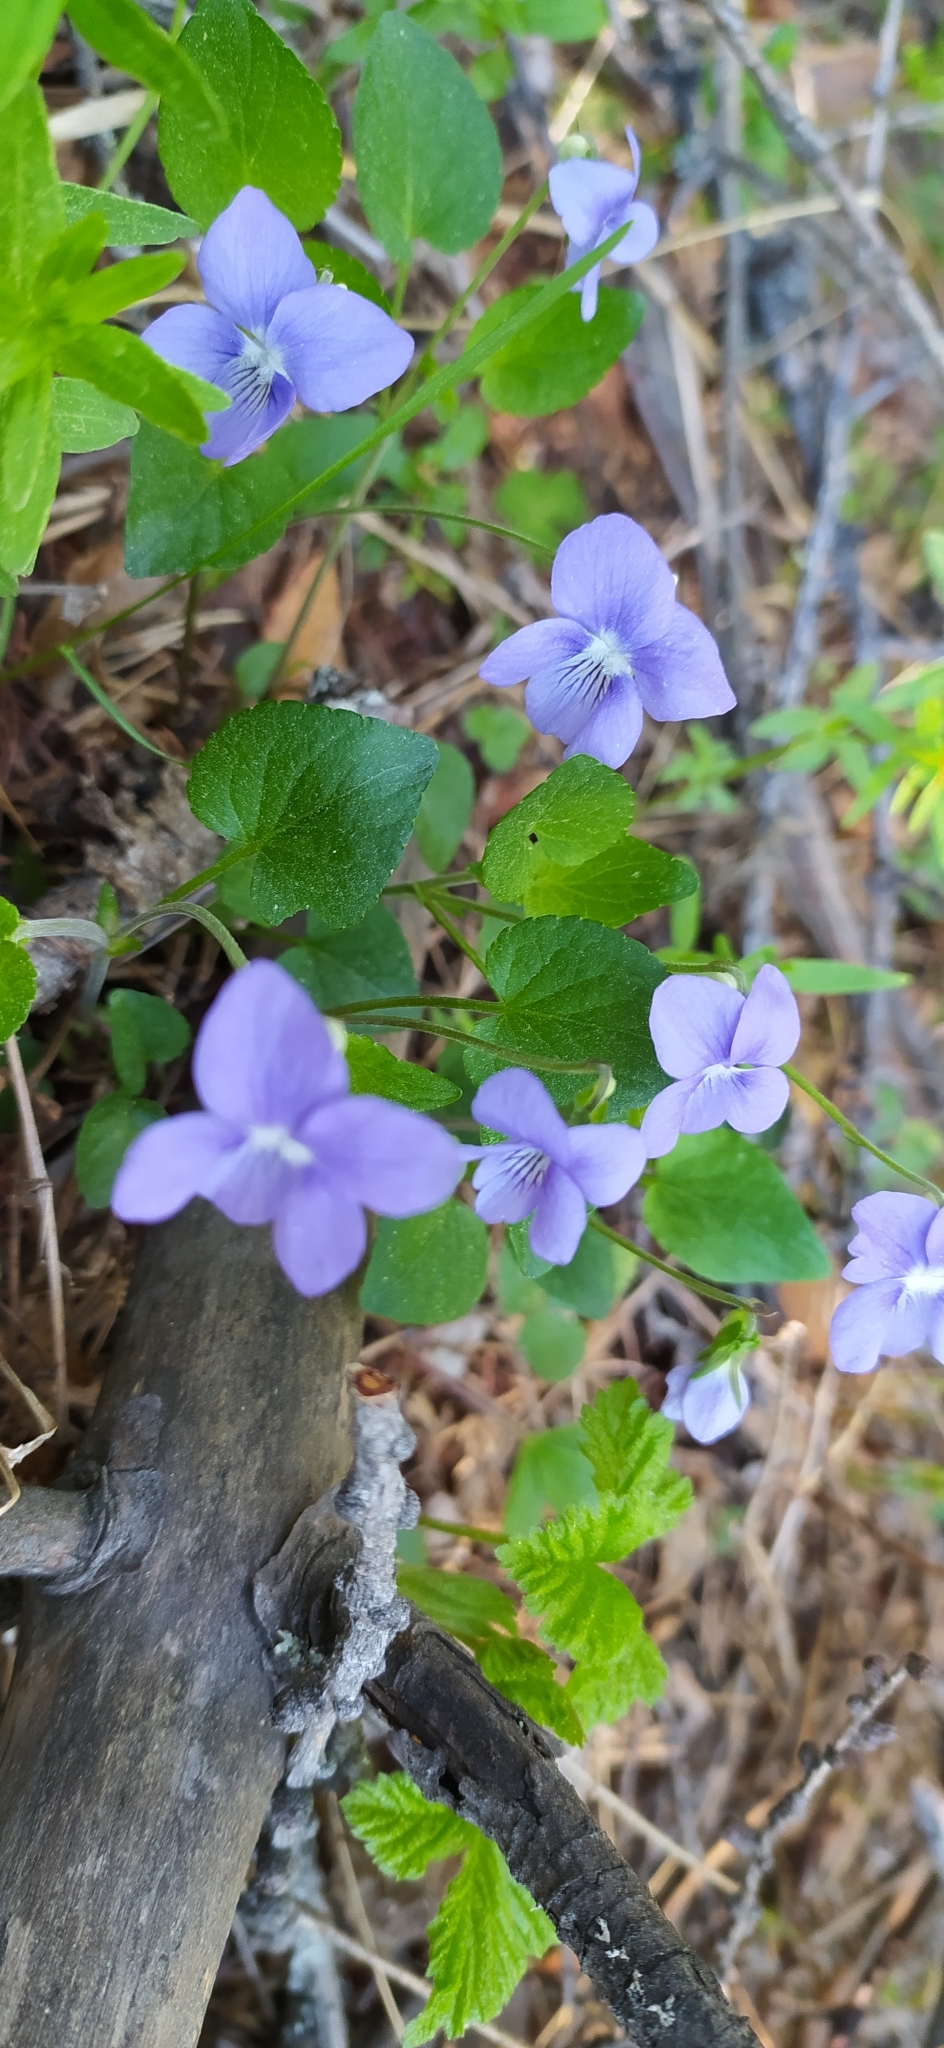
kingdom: Plantae
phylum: Tracheophyta
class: Magnoliopsida
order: Malpighiales
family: Violaceae
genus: Viola
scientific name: Viola canina
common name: Heath dog-violet
